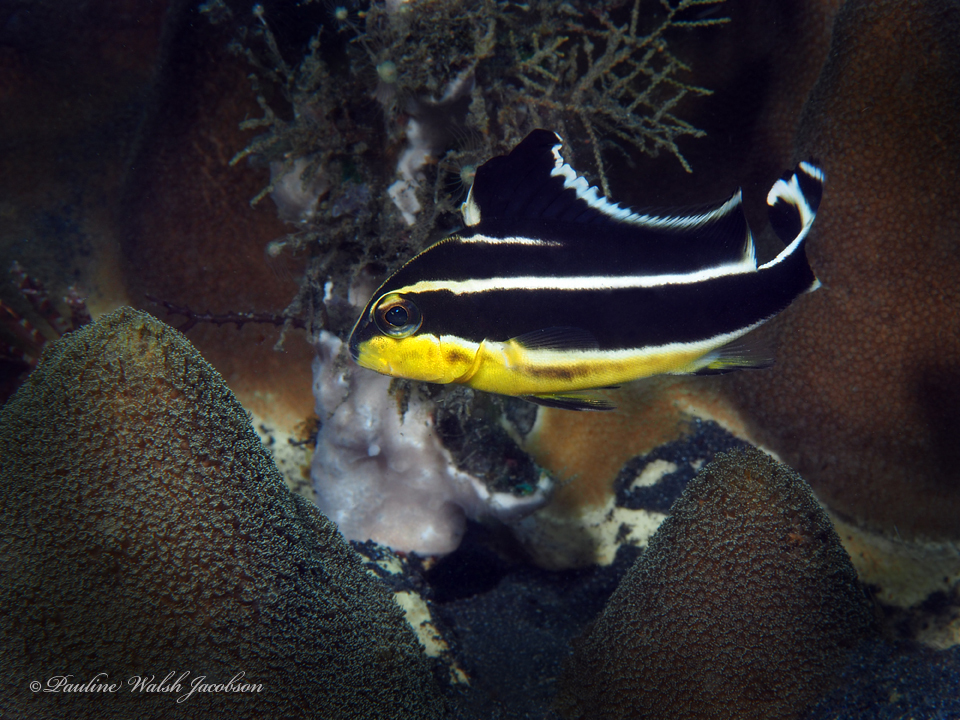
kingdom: Animalia
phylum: Chordata
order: Perciformes
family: Haemulidae
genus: Diagramma
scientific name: Diagramma pictum
